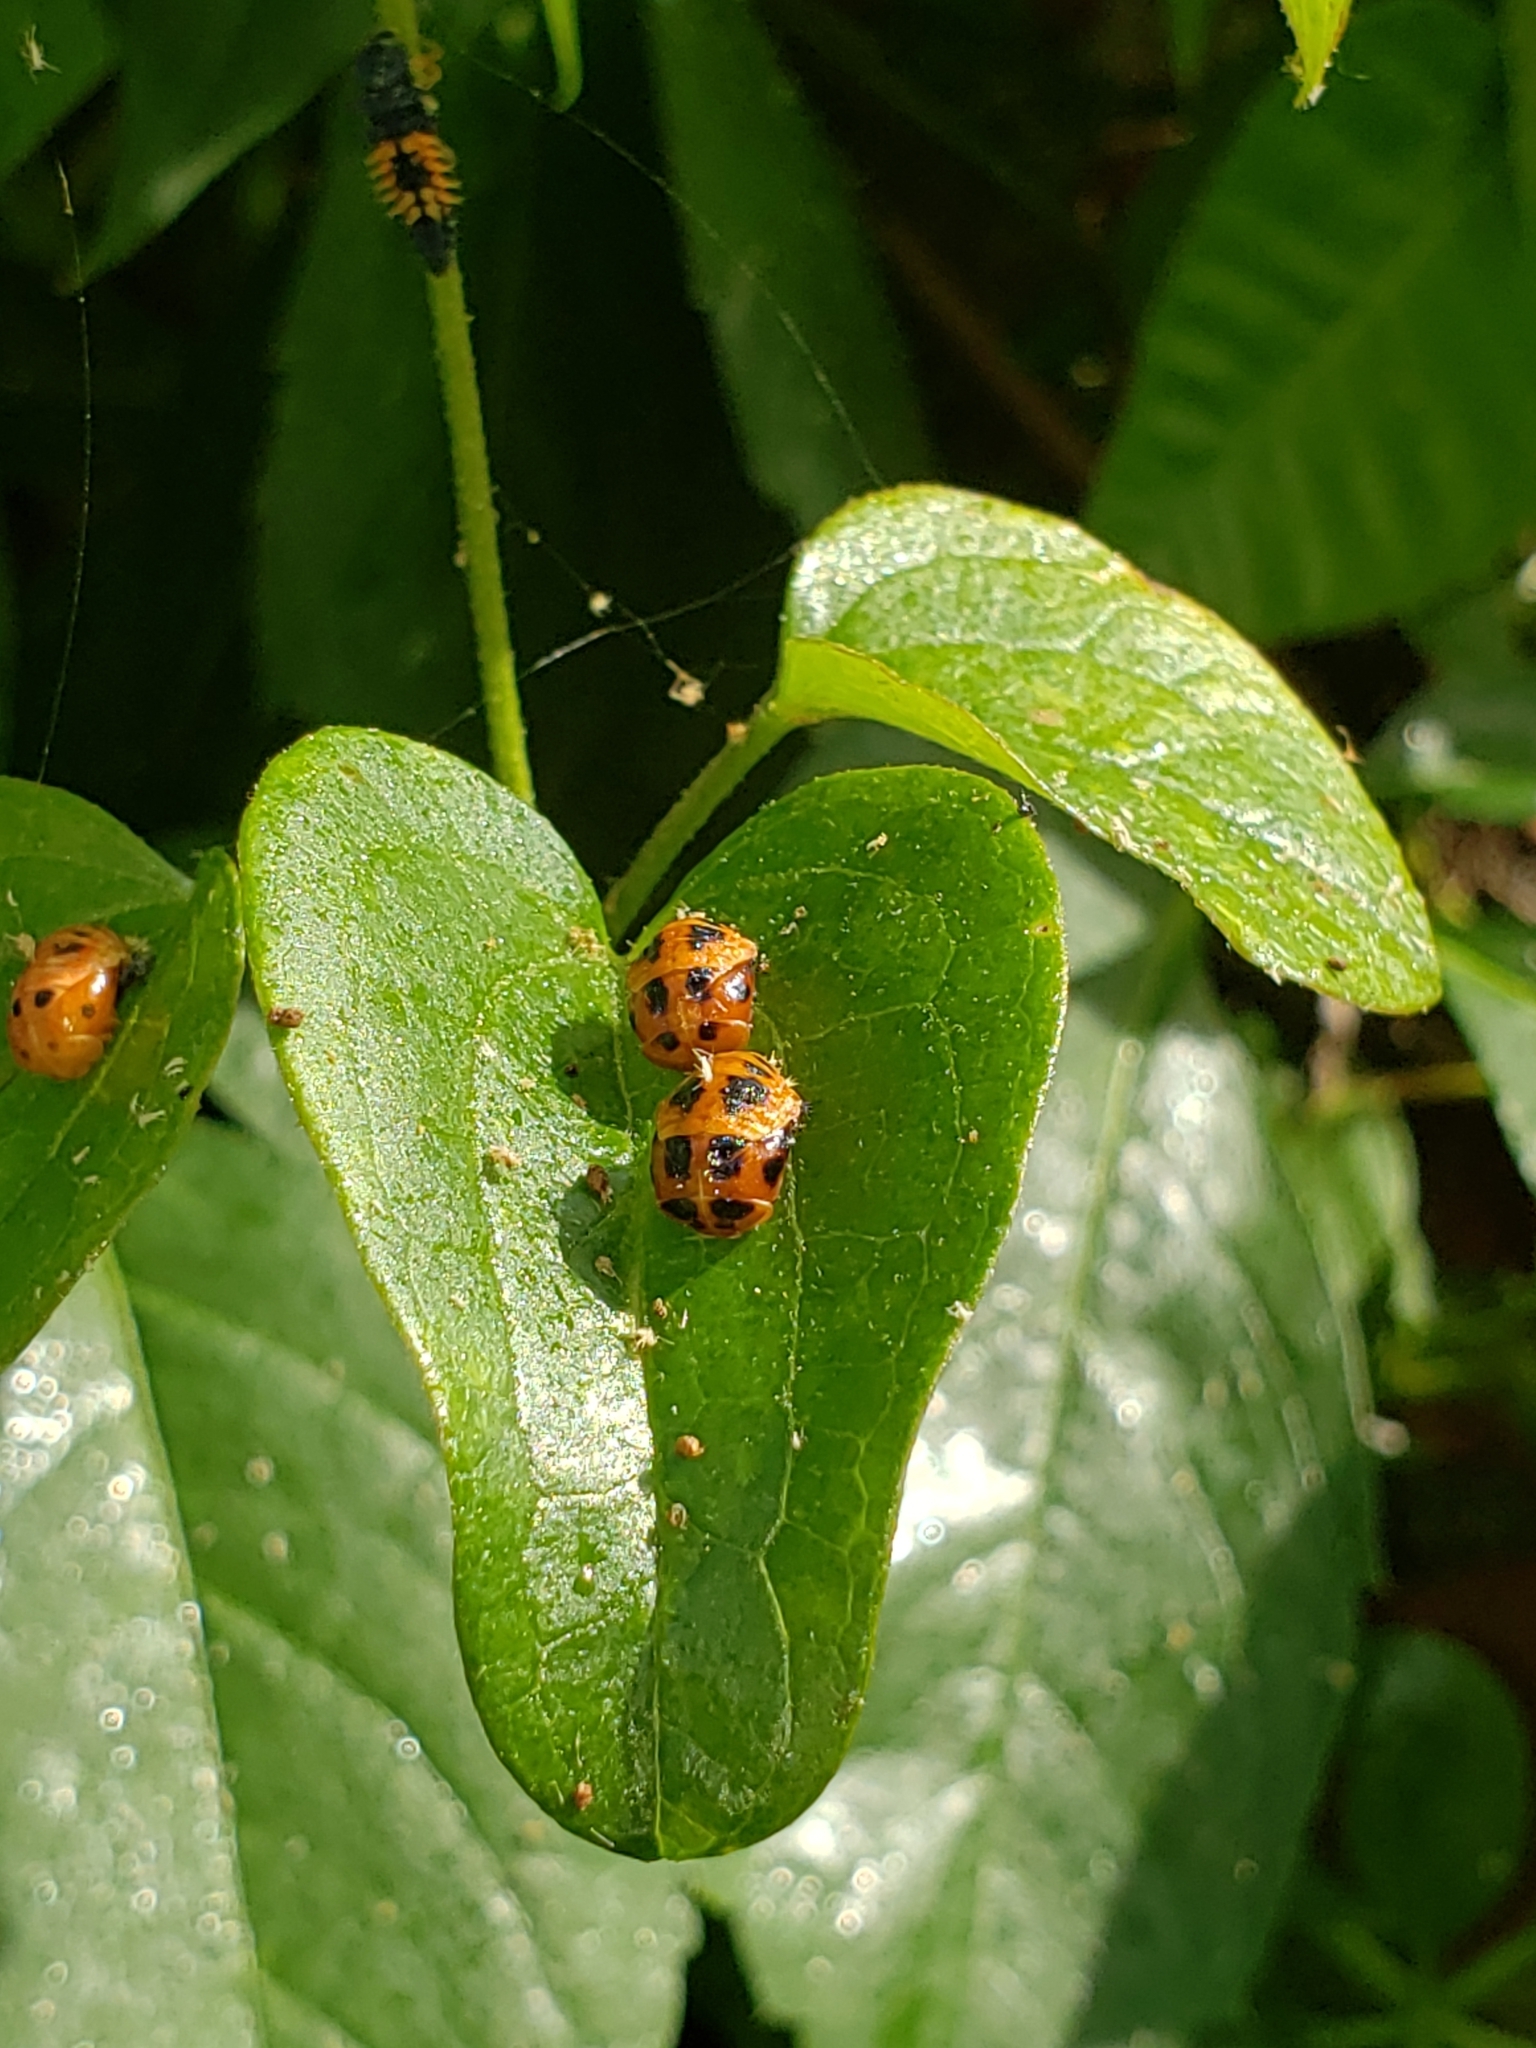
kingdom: Animalia
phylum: Arthropoda
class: Insecta
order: Coleoptera
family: Coccinellidae
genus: Harmonia
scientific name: Harmonia axyridis
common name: Harlequin ladybird
